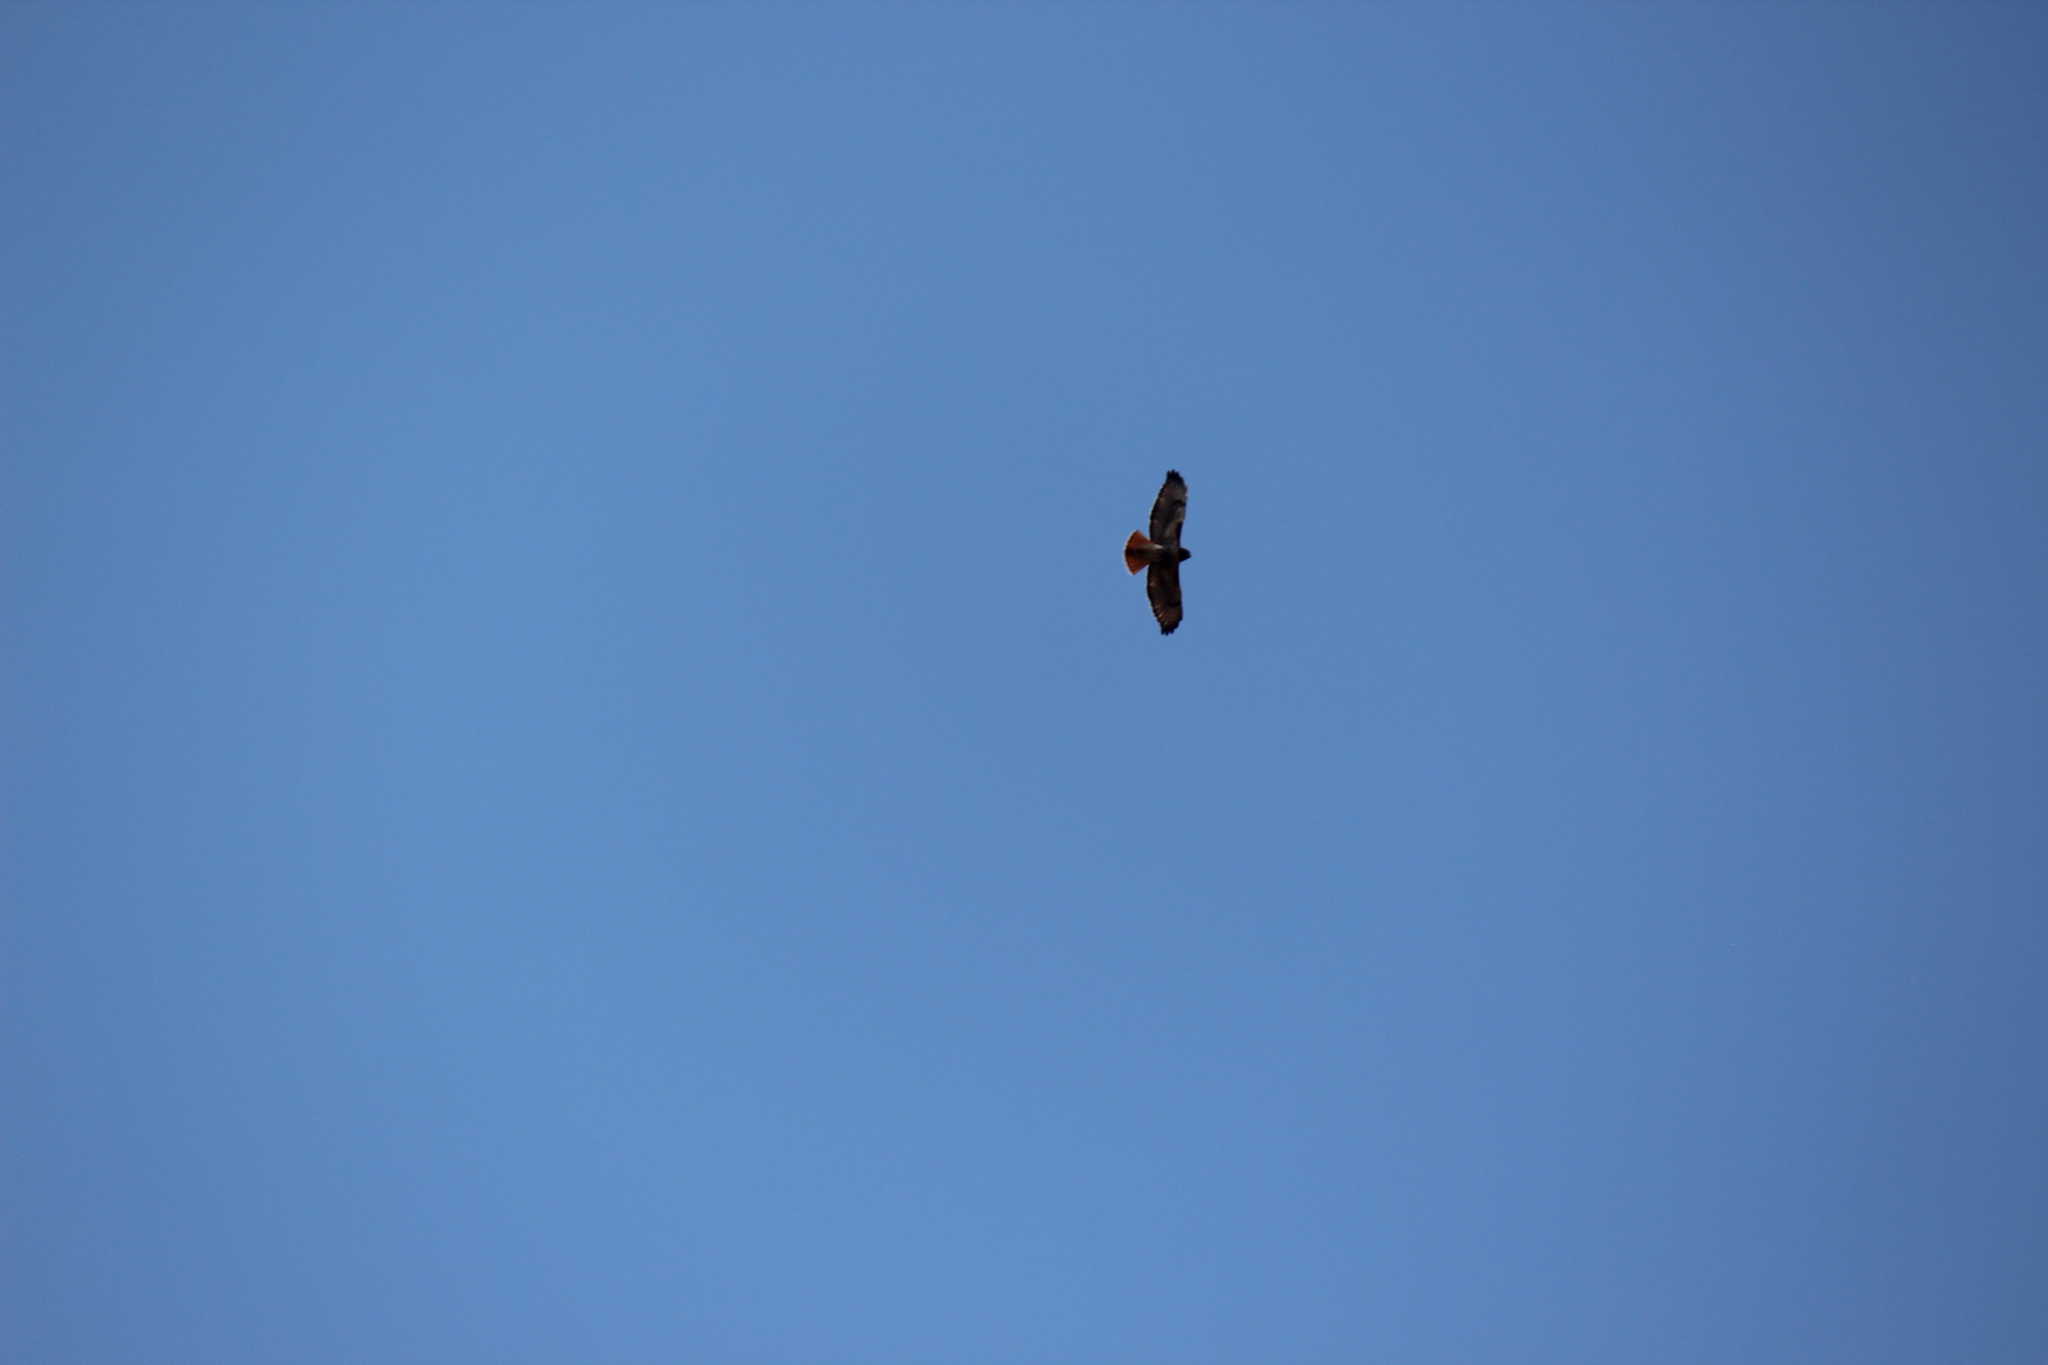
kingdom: Animalia
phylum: Chordata
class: Aves
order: Accipitriformes
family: Accipitridae
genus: Buteo
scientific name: Buteo jamaicensis
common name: Red-tailed hawk
